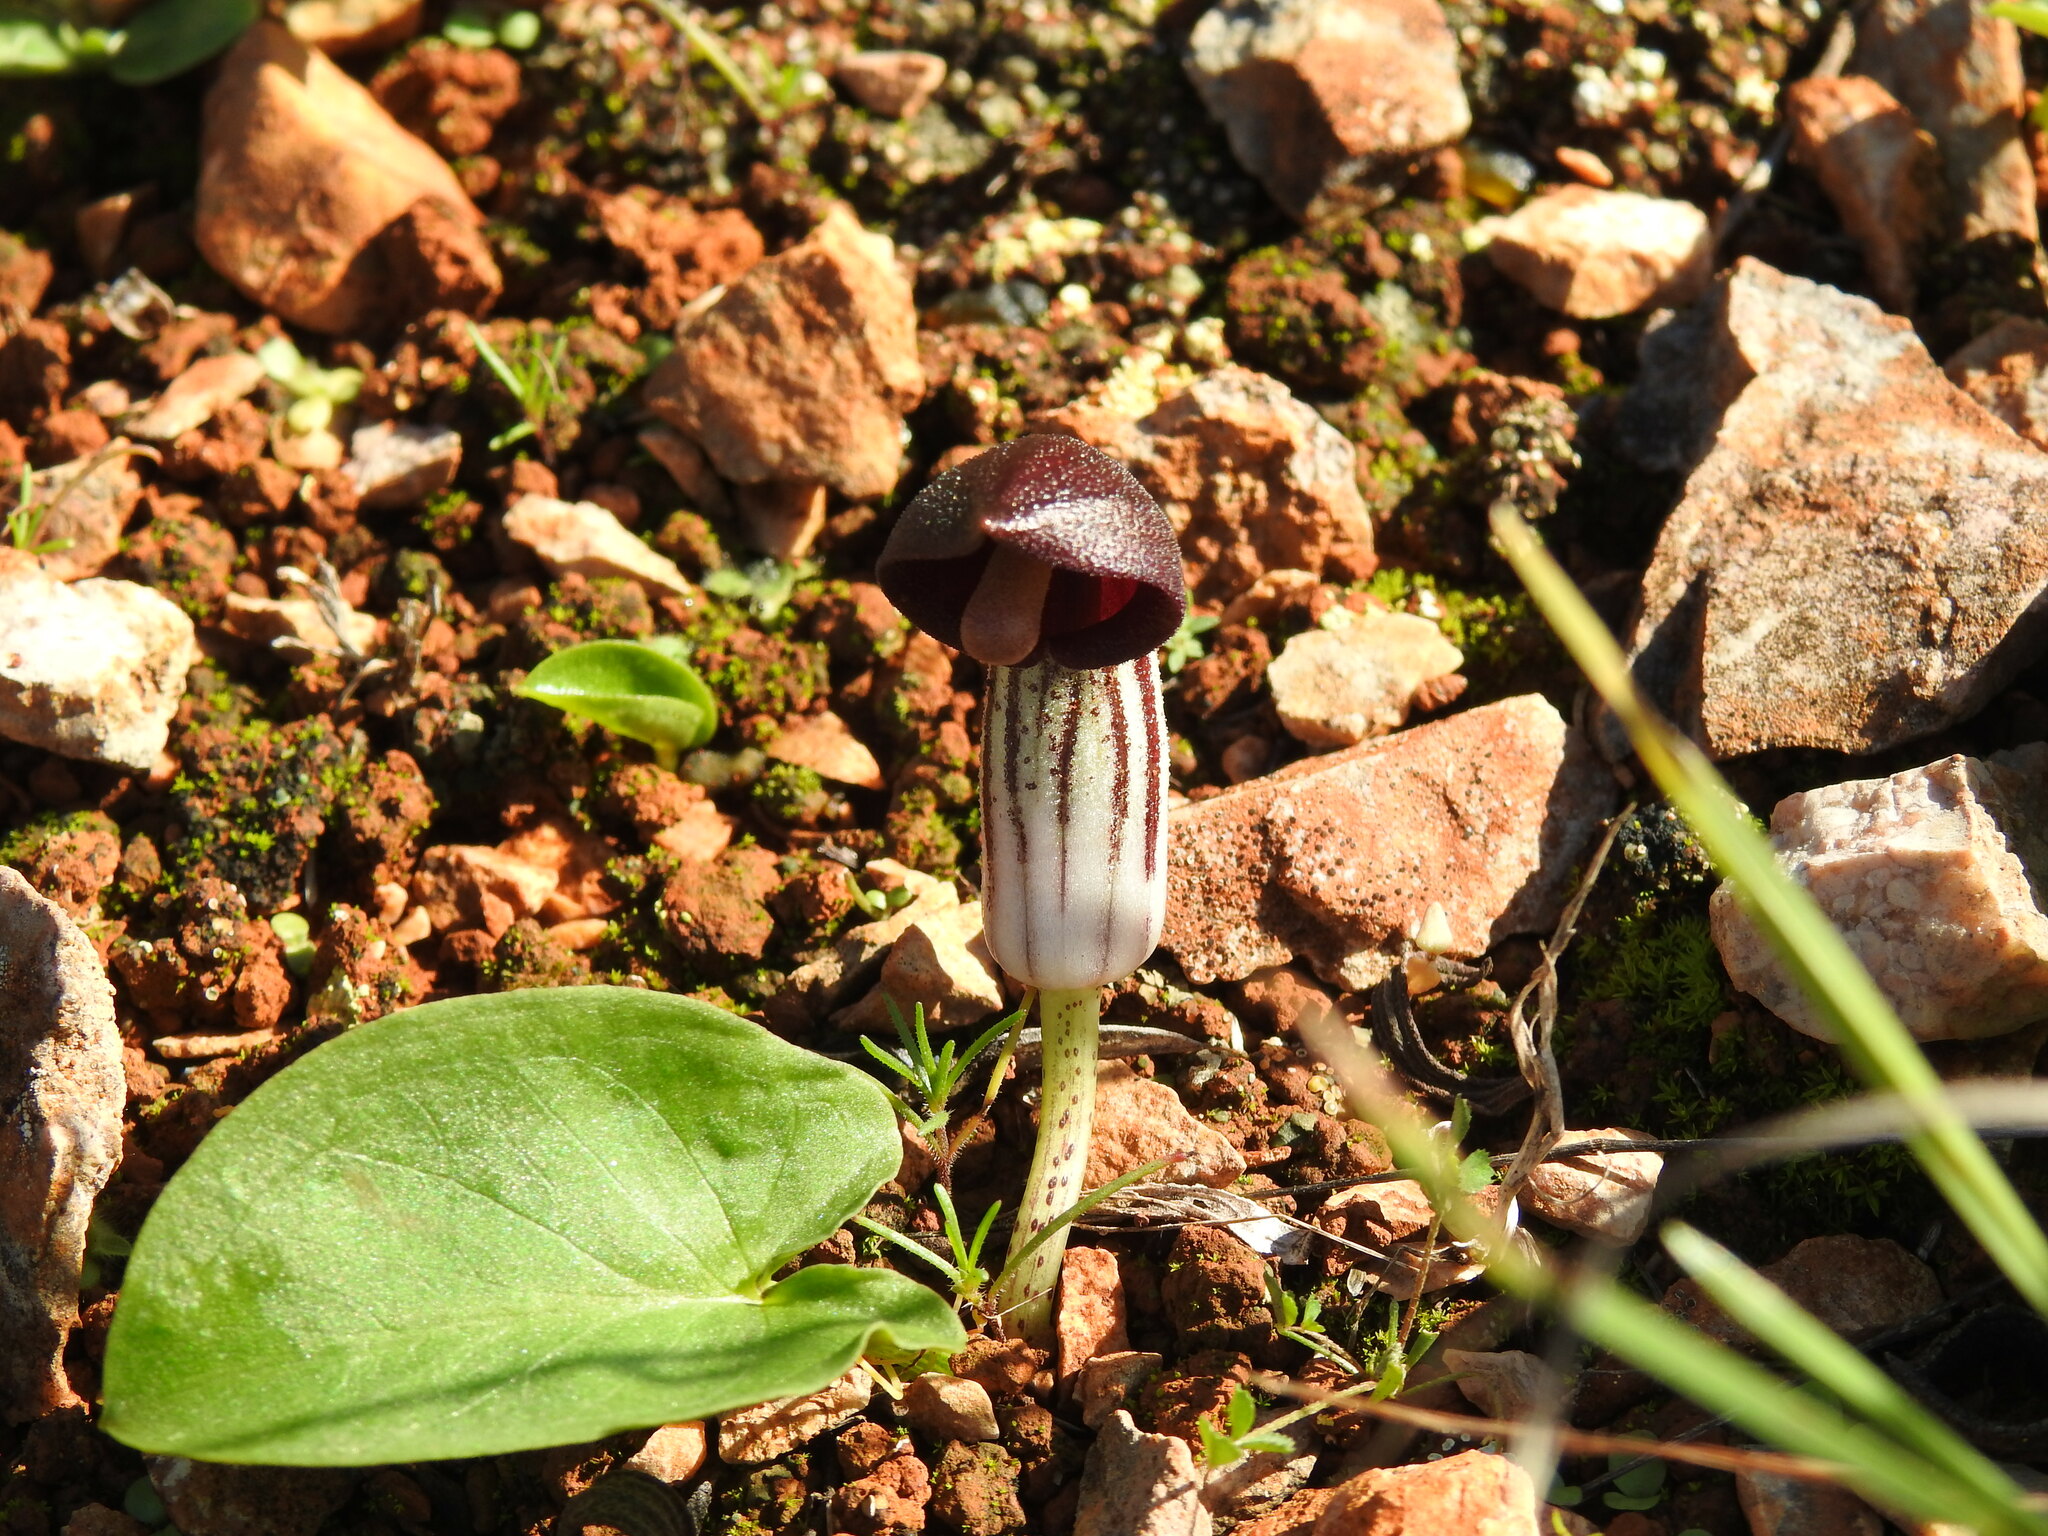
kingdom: Plantae
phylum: Tracheophyta
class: Liliopsida
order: Alismatales
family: Araceae
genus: Arisarum
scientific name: Arisarum simorrhinum
